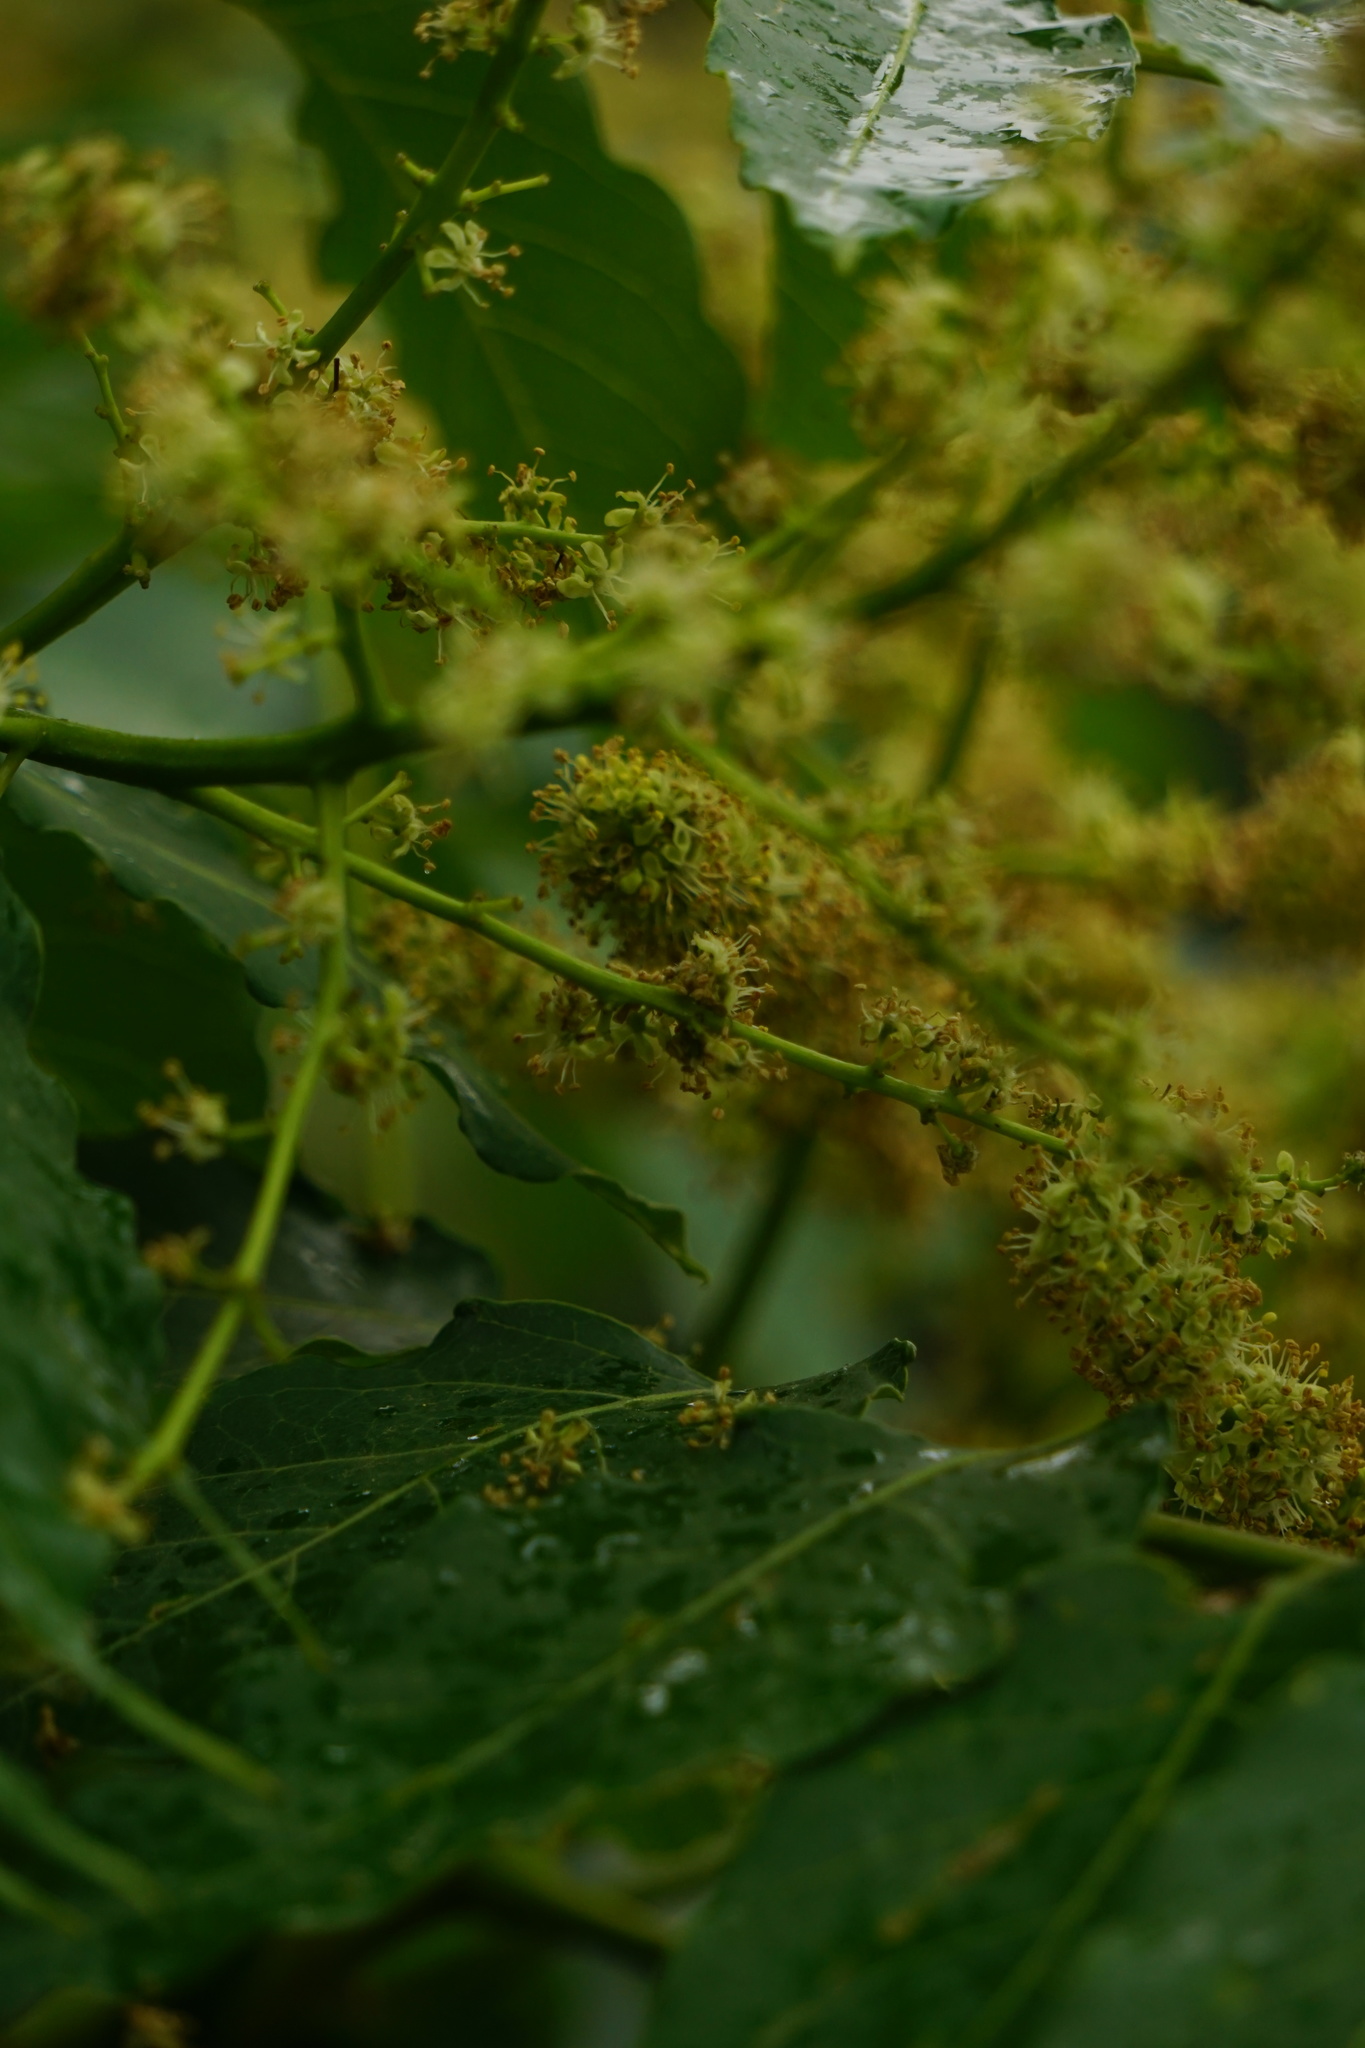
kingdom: Plantae
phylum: Tracheophyta
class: Magnoliopsida
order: Sapindales
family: Simaroubaceae
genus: Ailanthus
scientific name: Ailanthus altissima
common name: Tree-of-heaven
